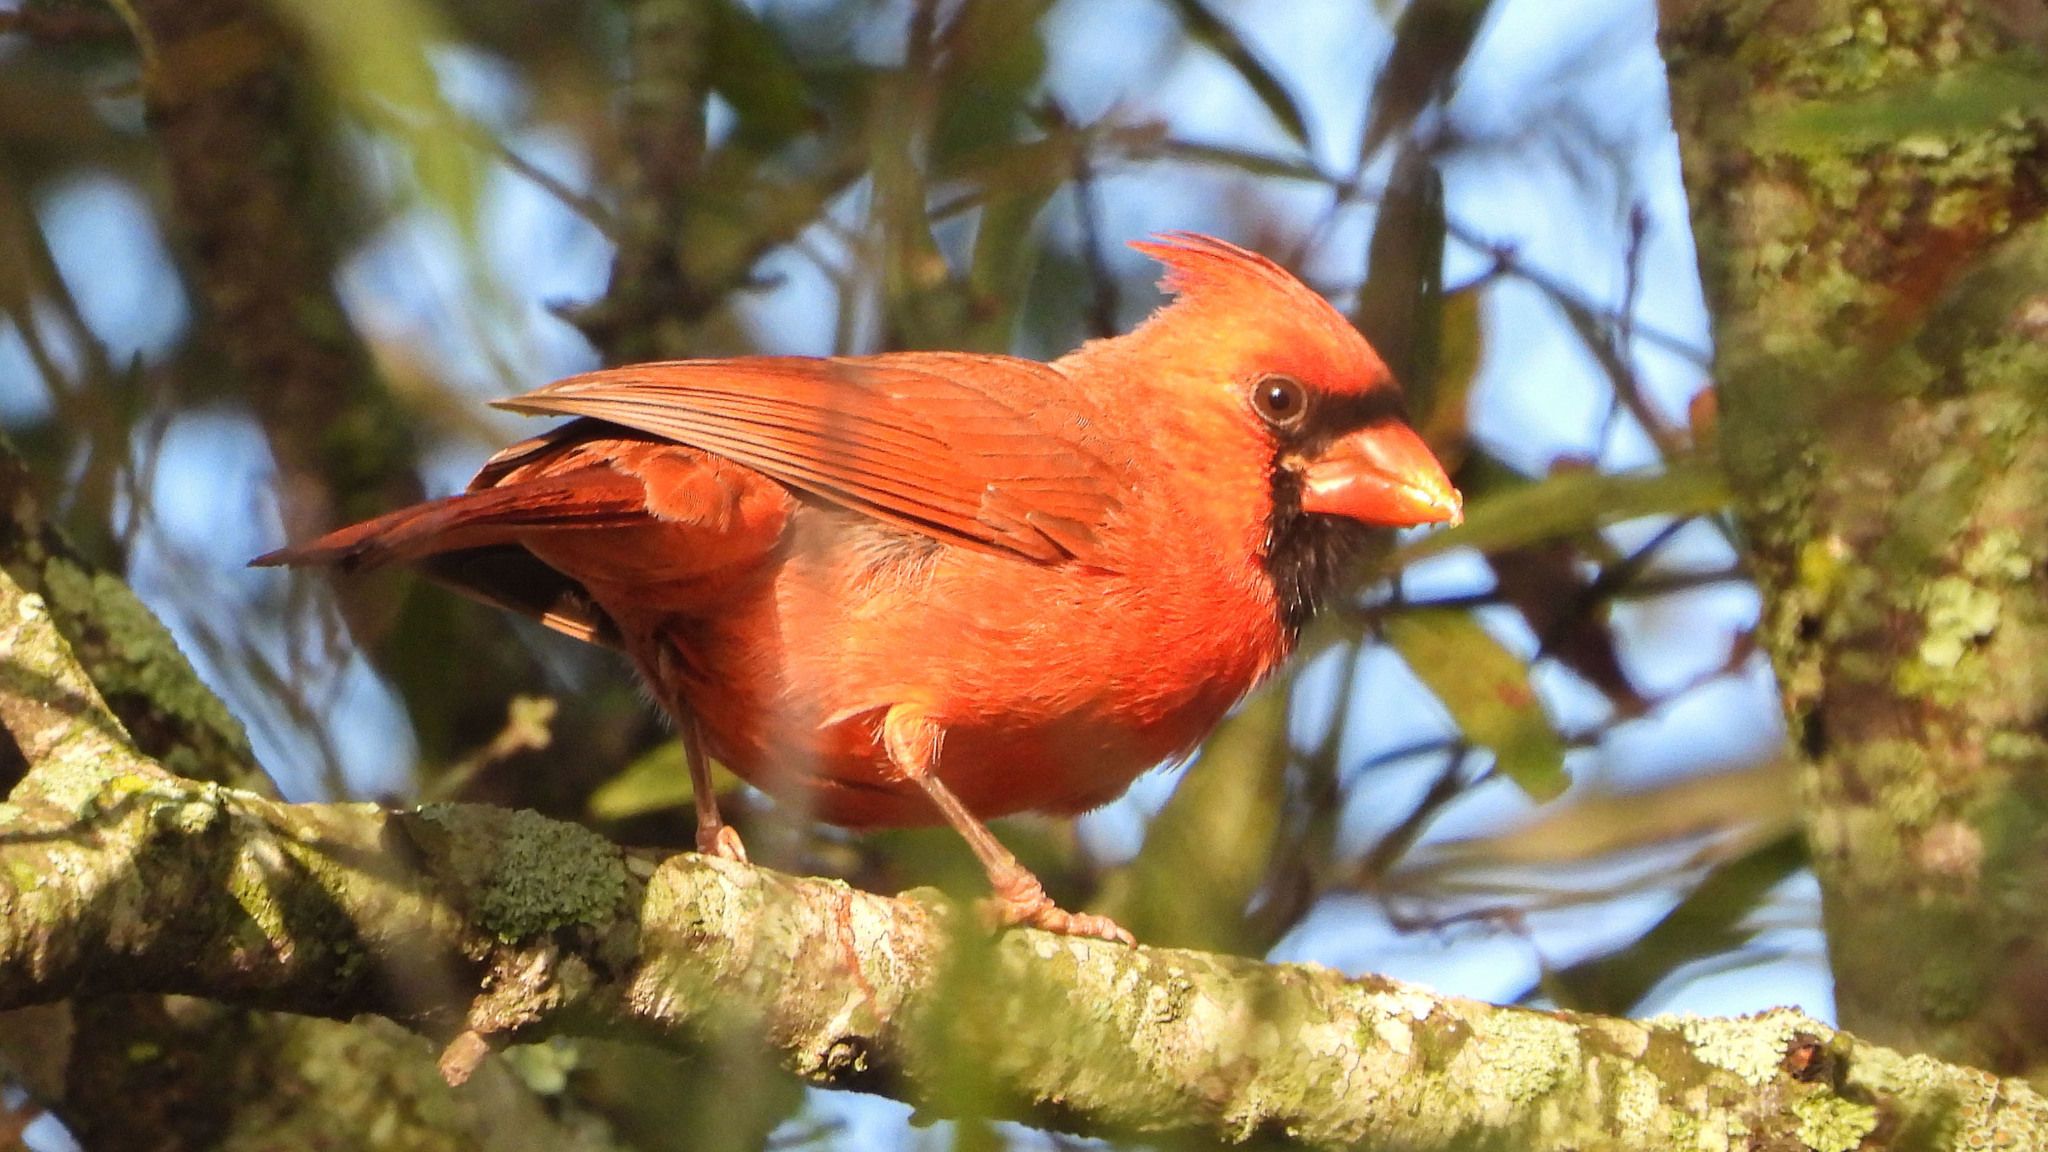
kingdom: Animalia
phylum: Chordata
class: Aves
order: Passeriformes
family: Cardinalidae
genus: Cardinalis
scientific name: Cardinalis cardinalis
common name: Northern cardinal
